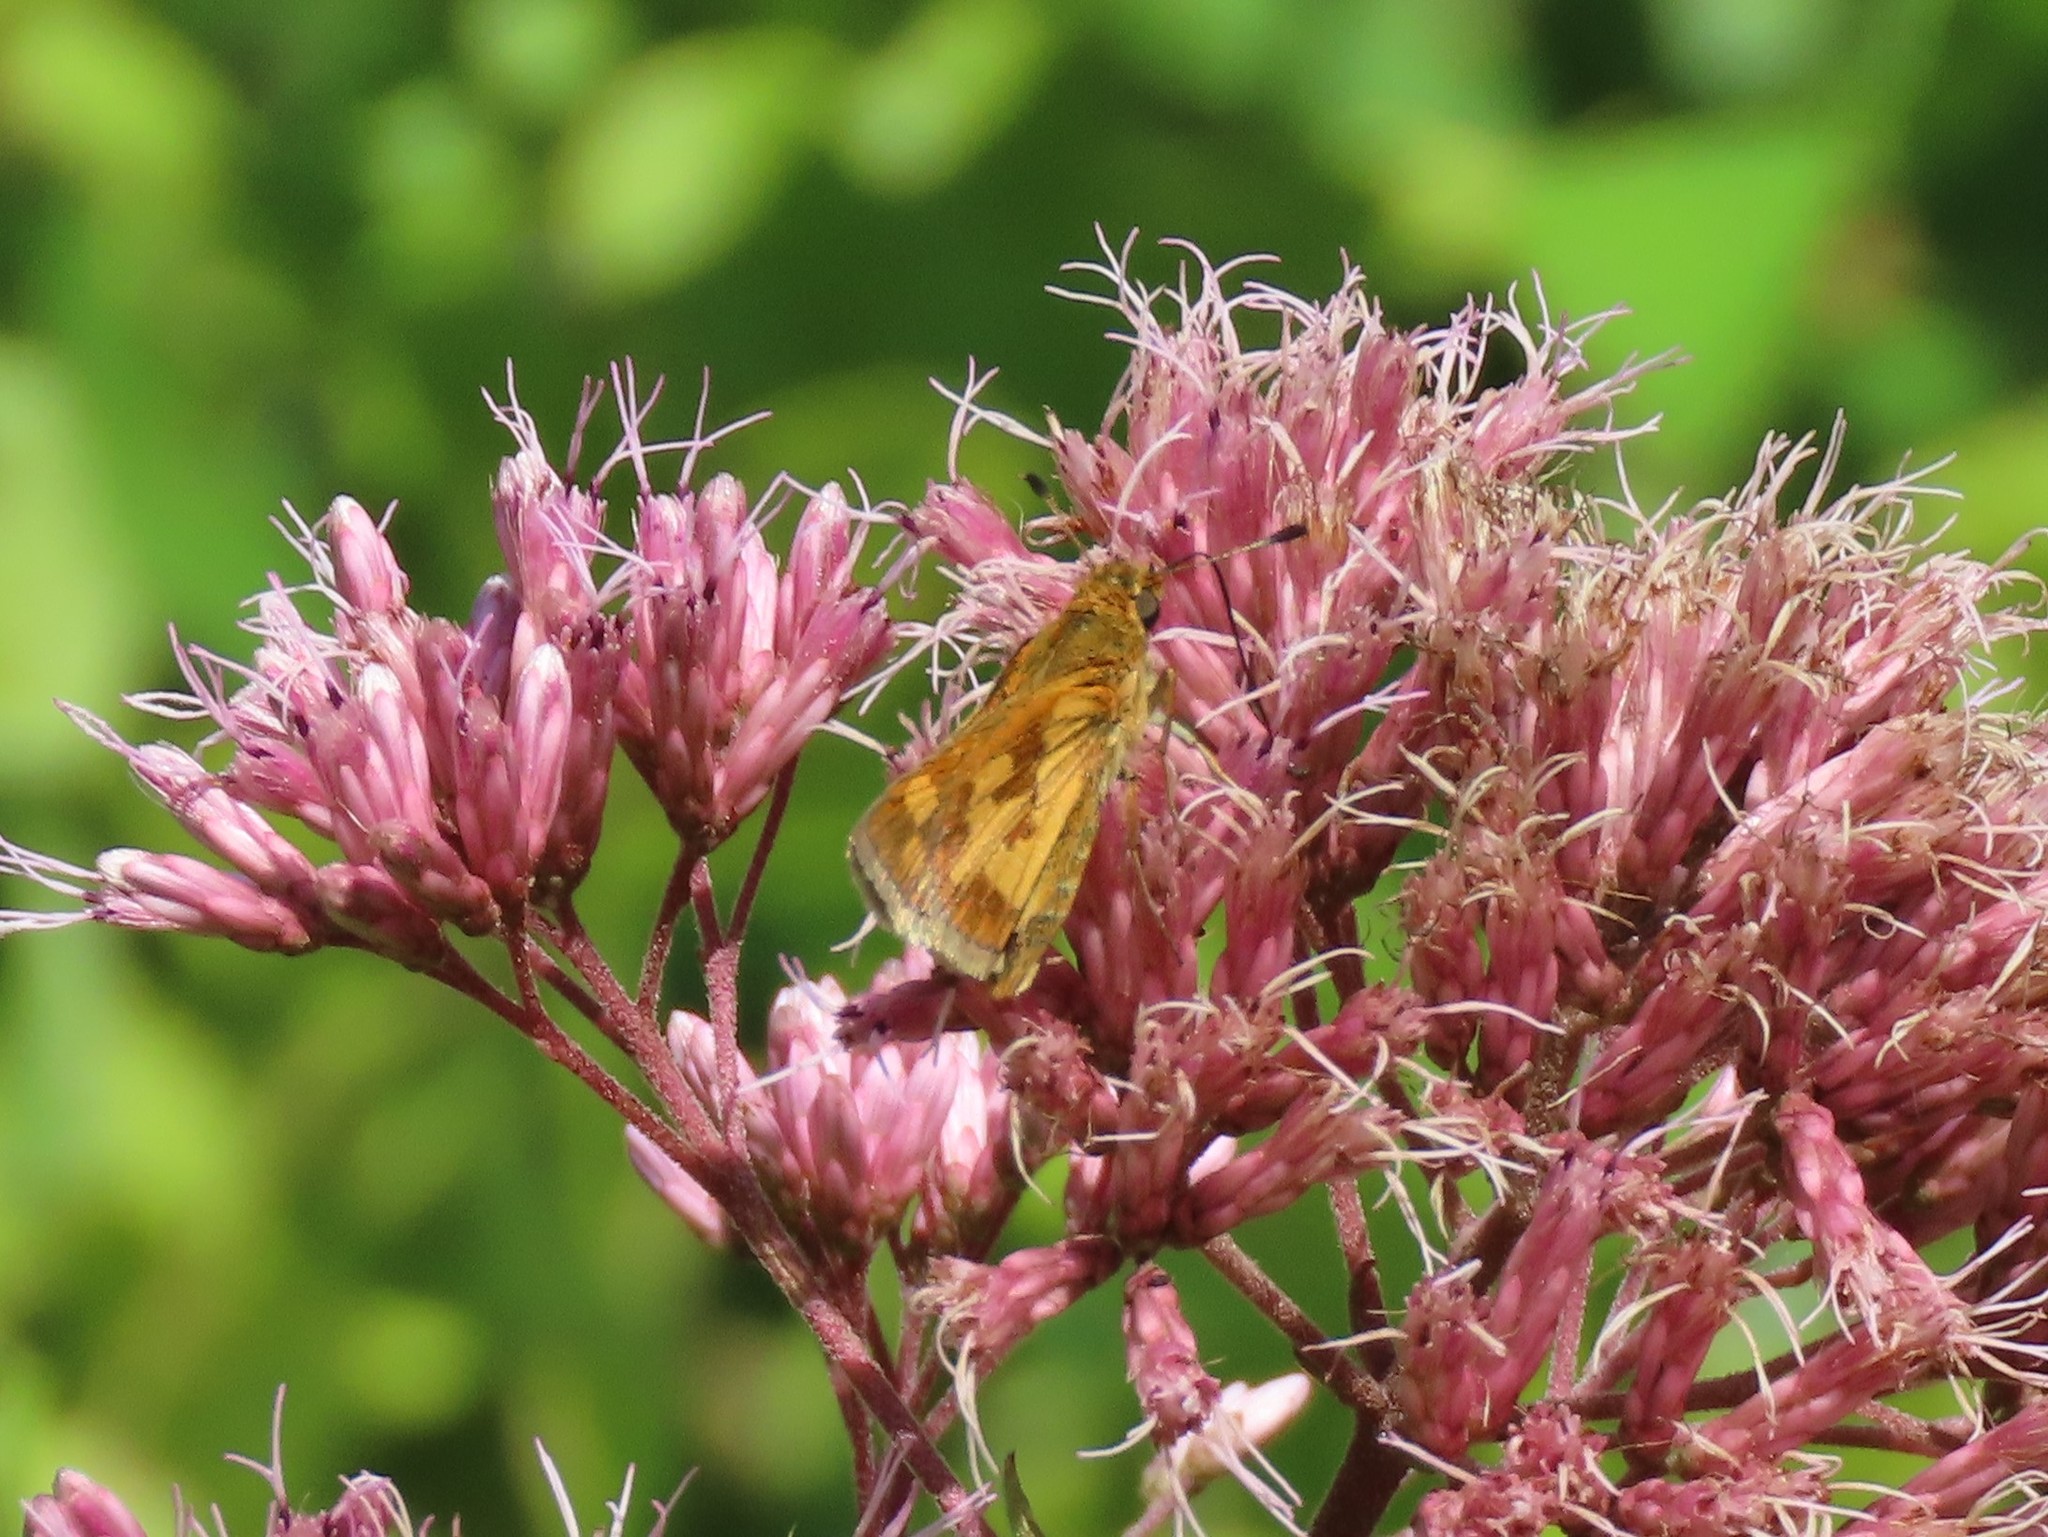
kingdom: Animalia
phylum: Arthropoda
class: Insecta
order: Lepidoptera
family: Hesperiidae
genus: Polites
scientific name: Polites coras
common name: Peck's skipper
